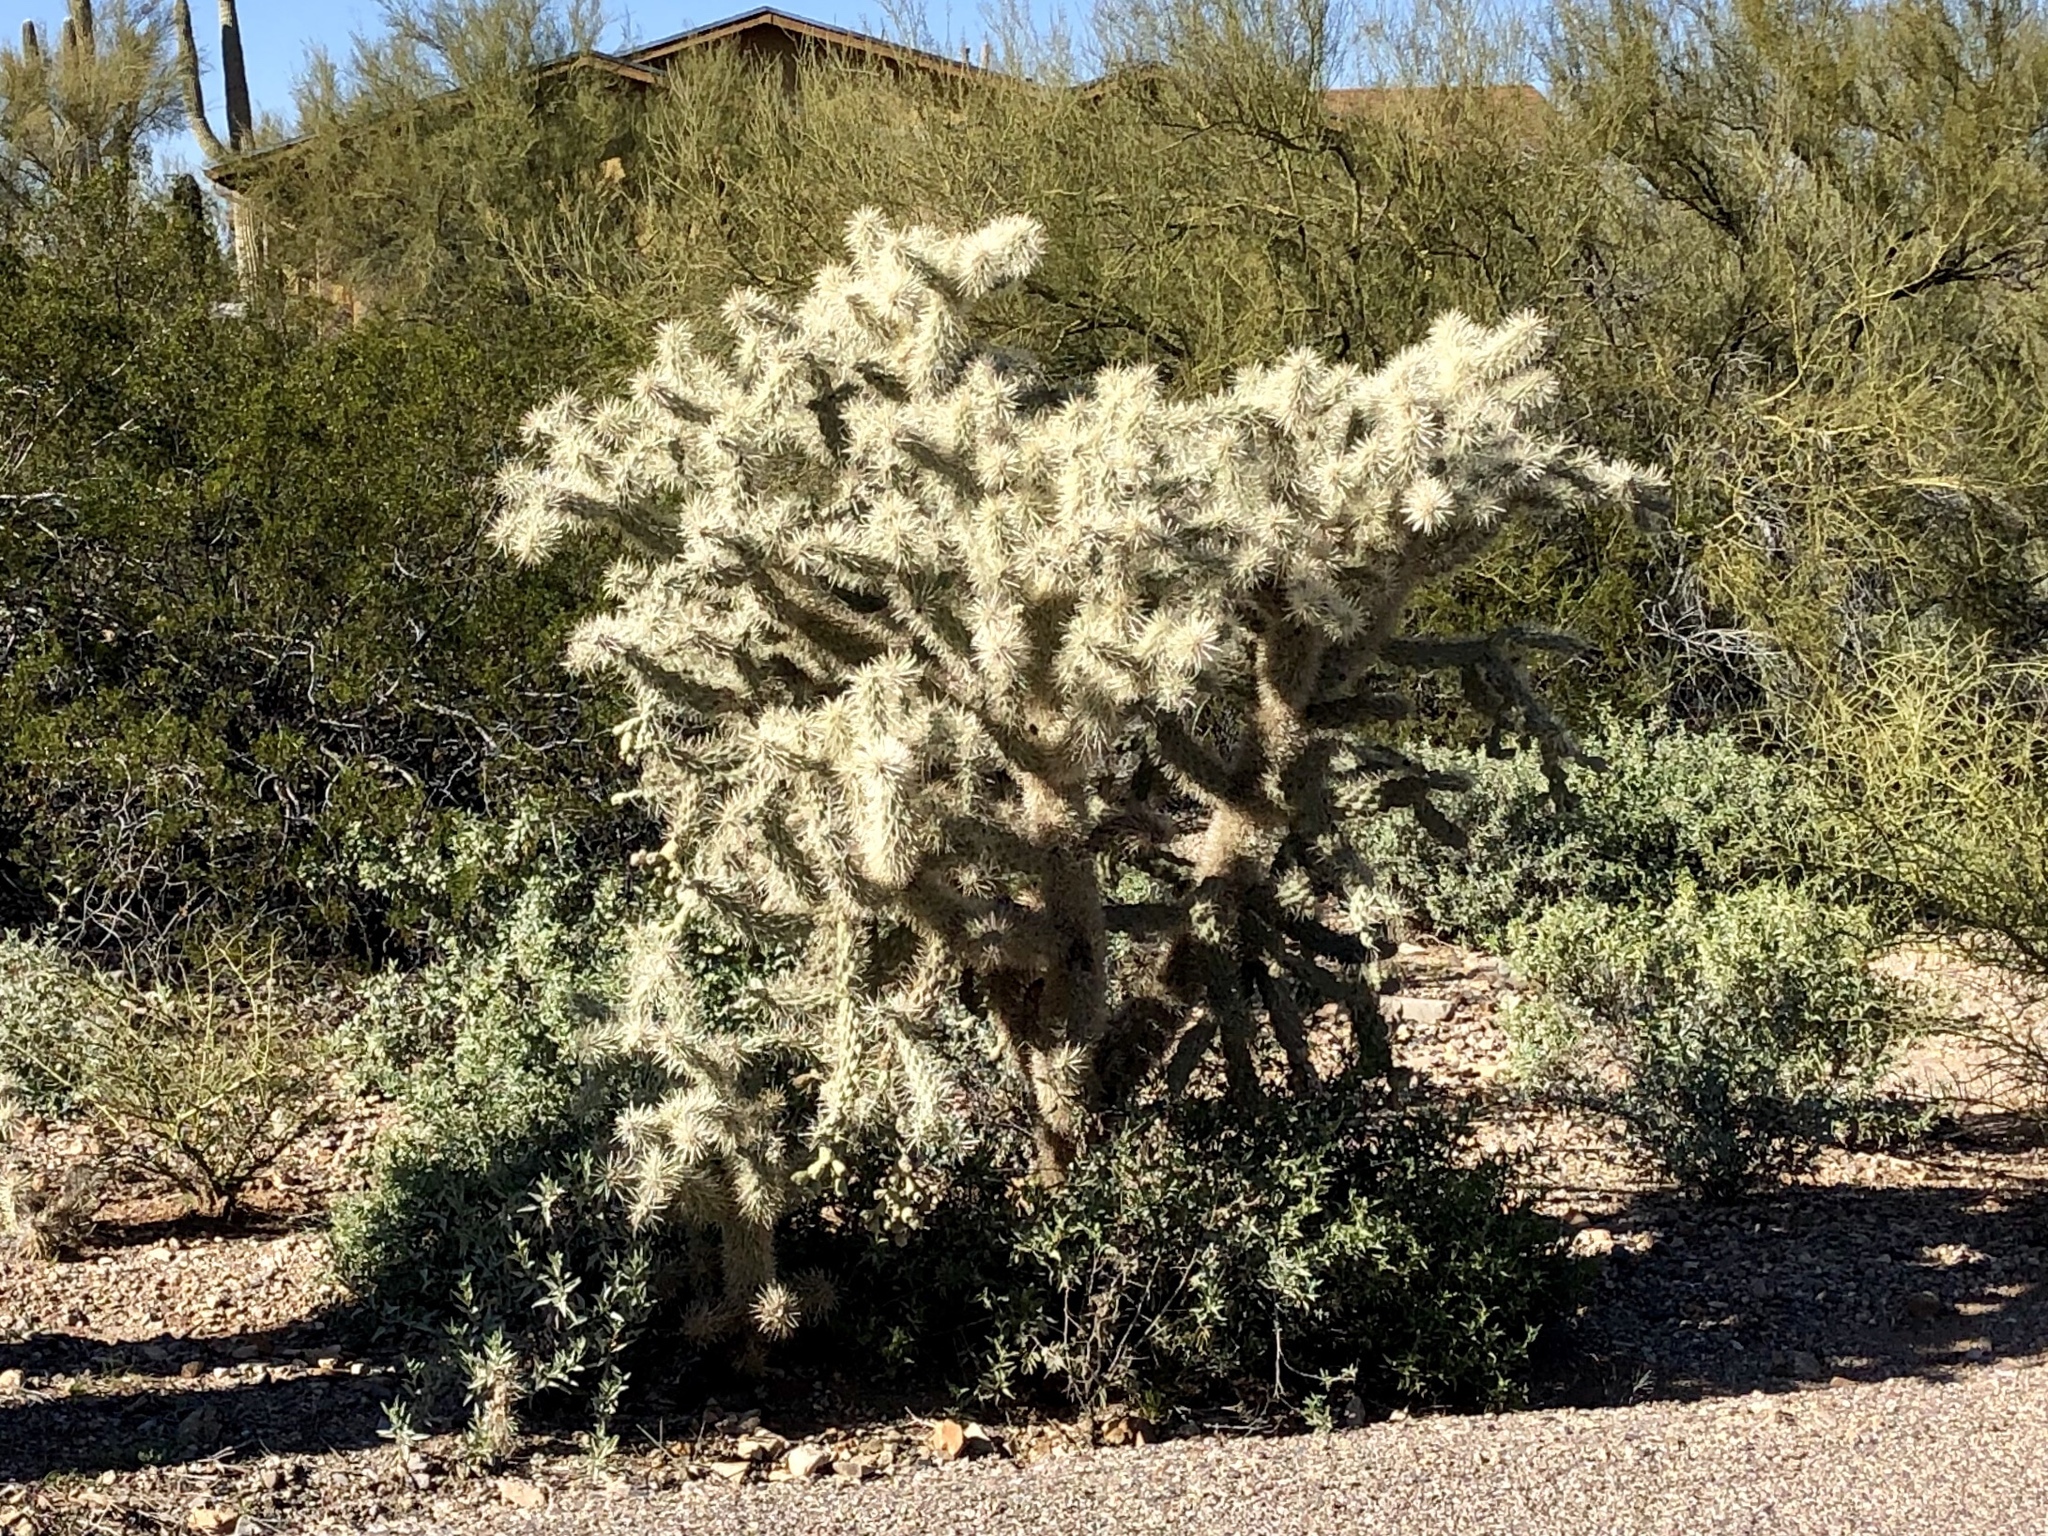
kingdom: Plantae
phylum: Tracheophyta
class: Magnoliopsida
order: Caryophyllales
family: Cactaceae
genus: Cylindropuntia
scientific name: Cylindropuntia fulgida
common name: Jumping cholla
